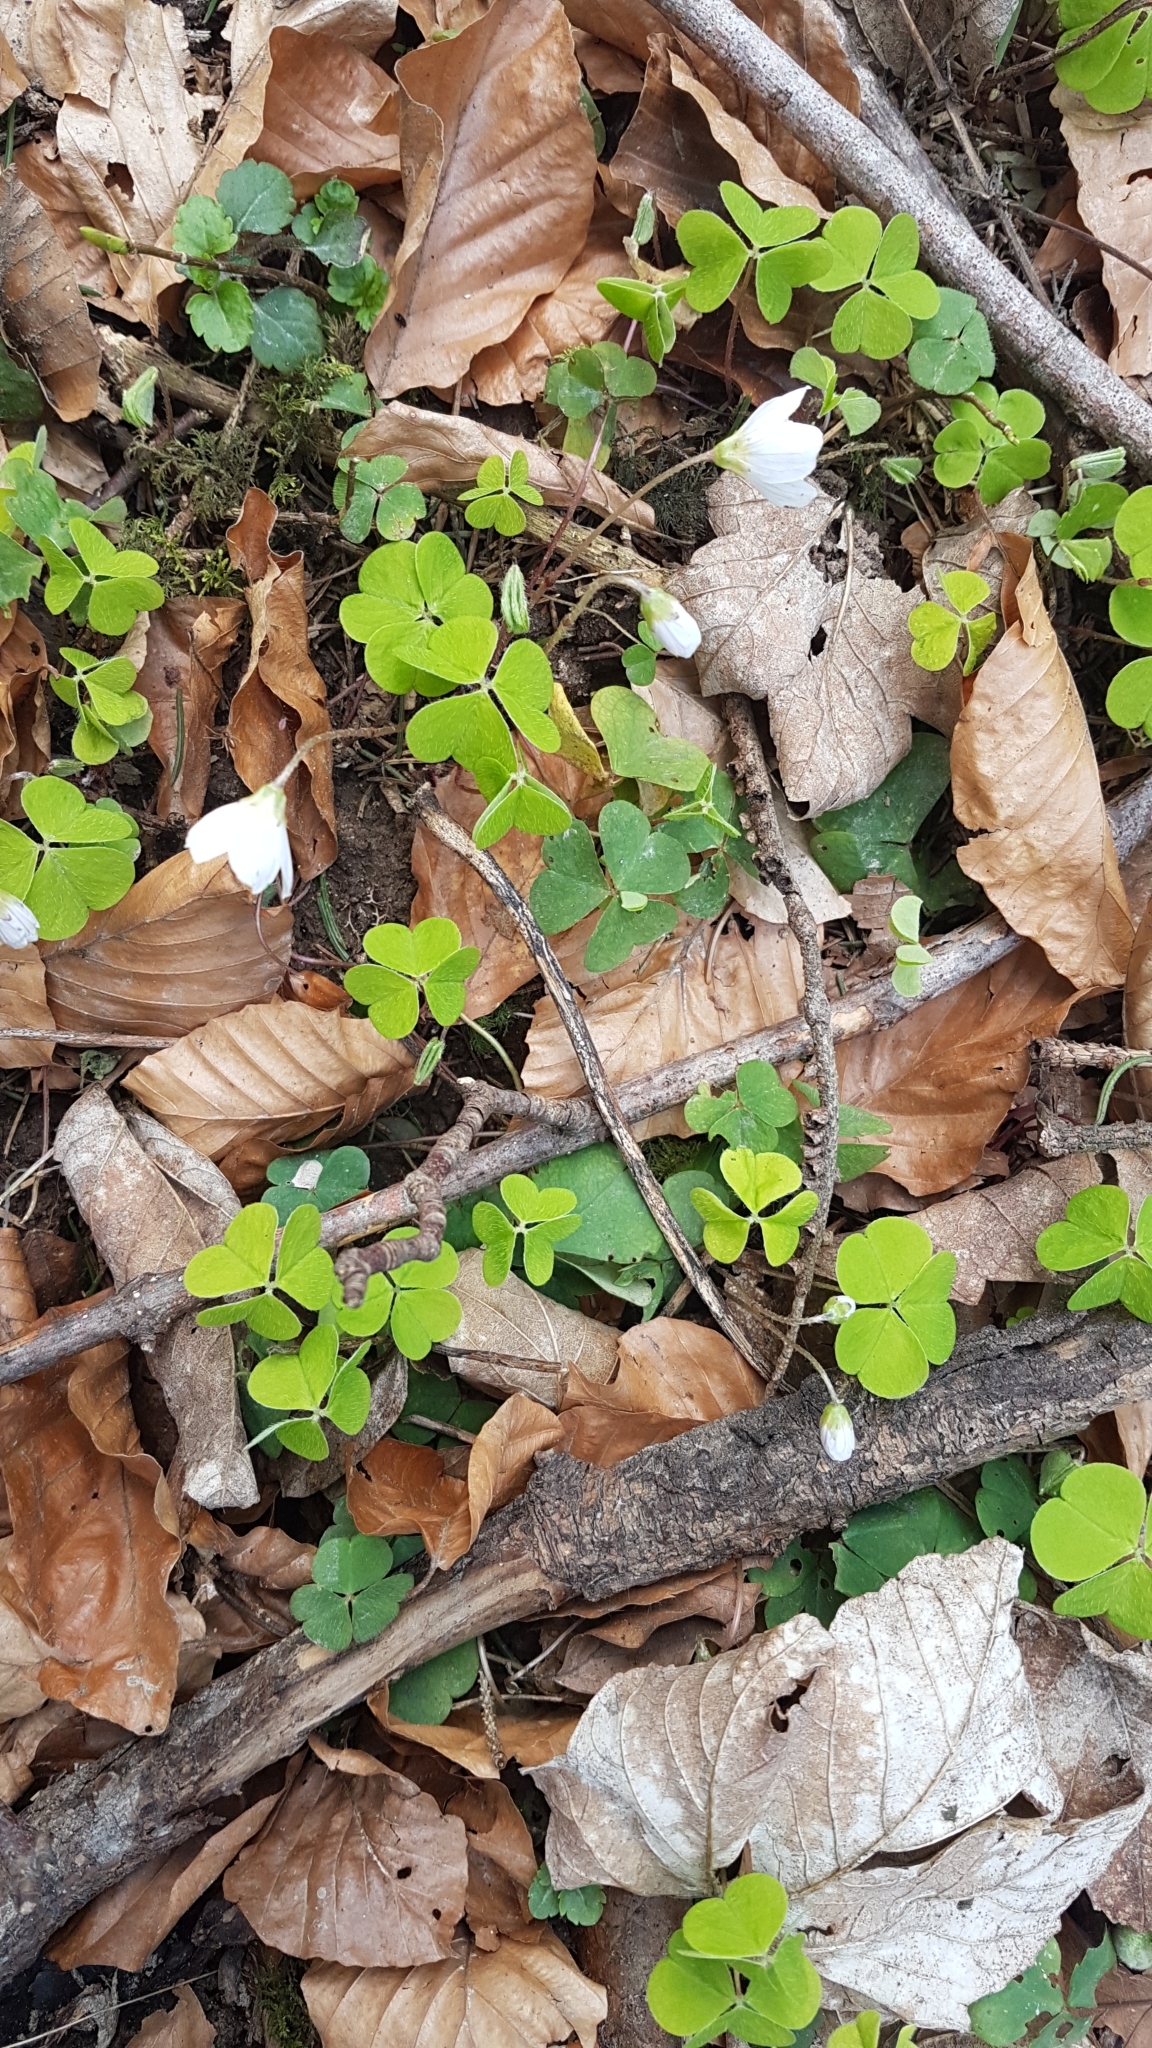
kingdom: Plantae
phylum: Tracheophyta
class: Magnoliopsida
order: Oxalidales
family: Oxalidaceae
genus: Oxalis
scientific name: Oxalis acetosella
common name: Wood-sorrel
